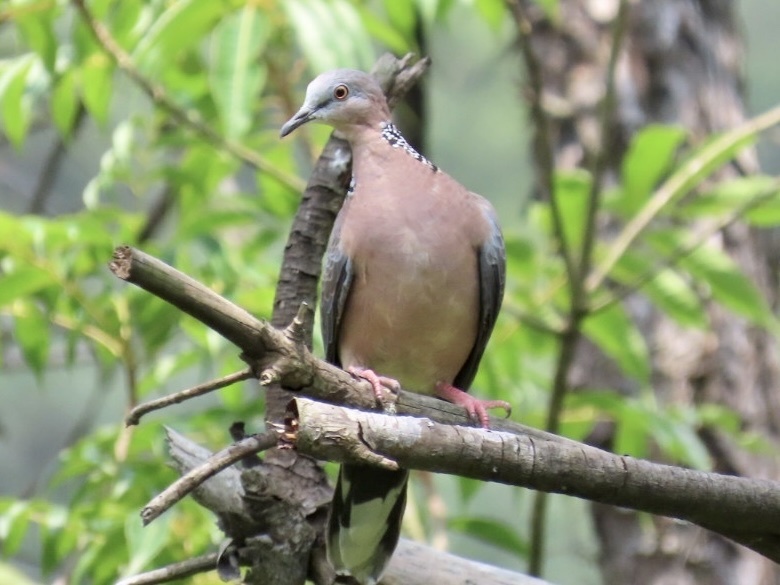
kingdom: Animalia
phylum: Chordata
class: Aves
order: Columbiformes
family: Columbidae
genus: Spilopelia
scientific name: Spilopelia chinensis
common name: Spotted dove
